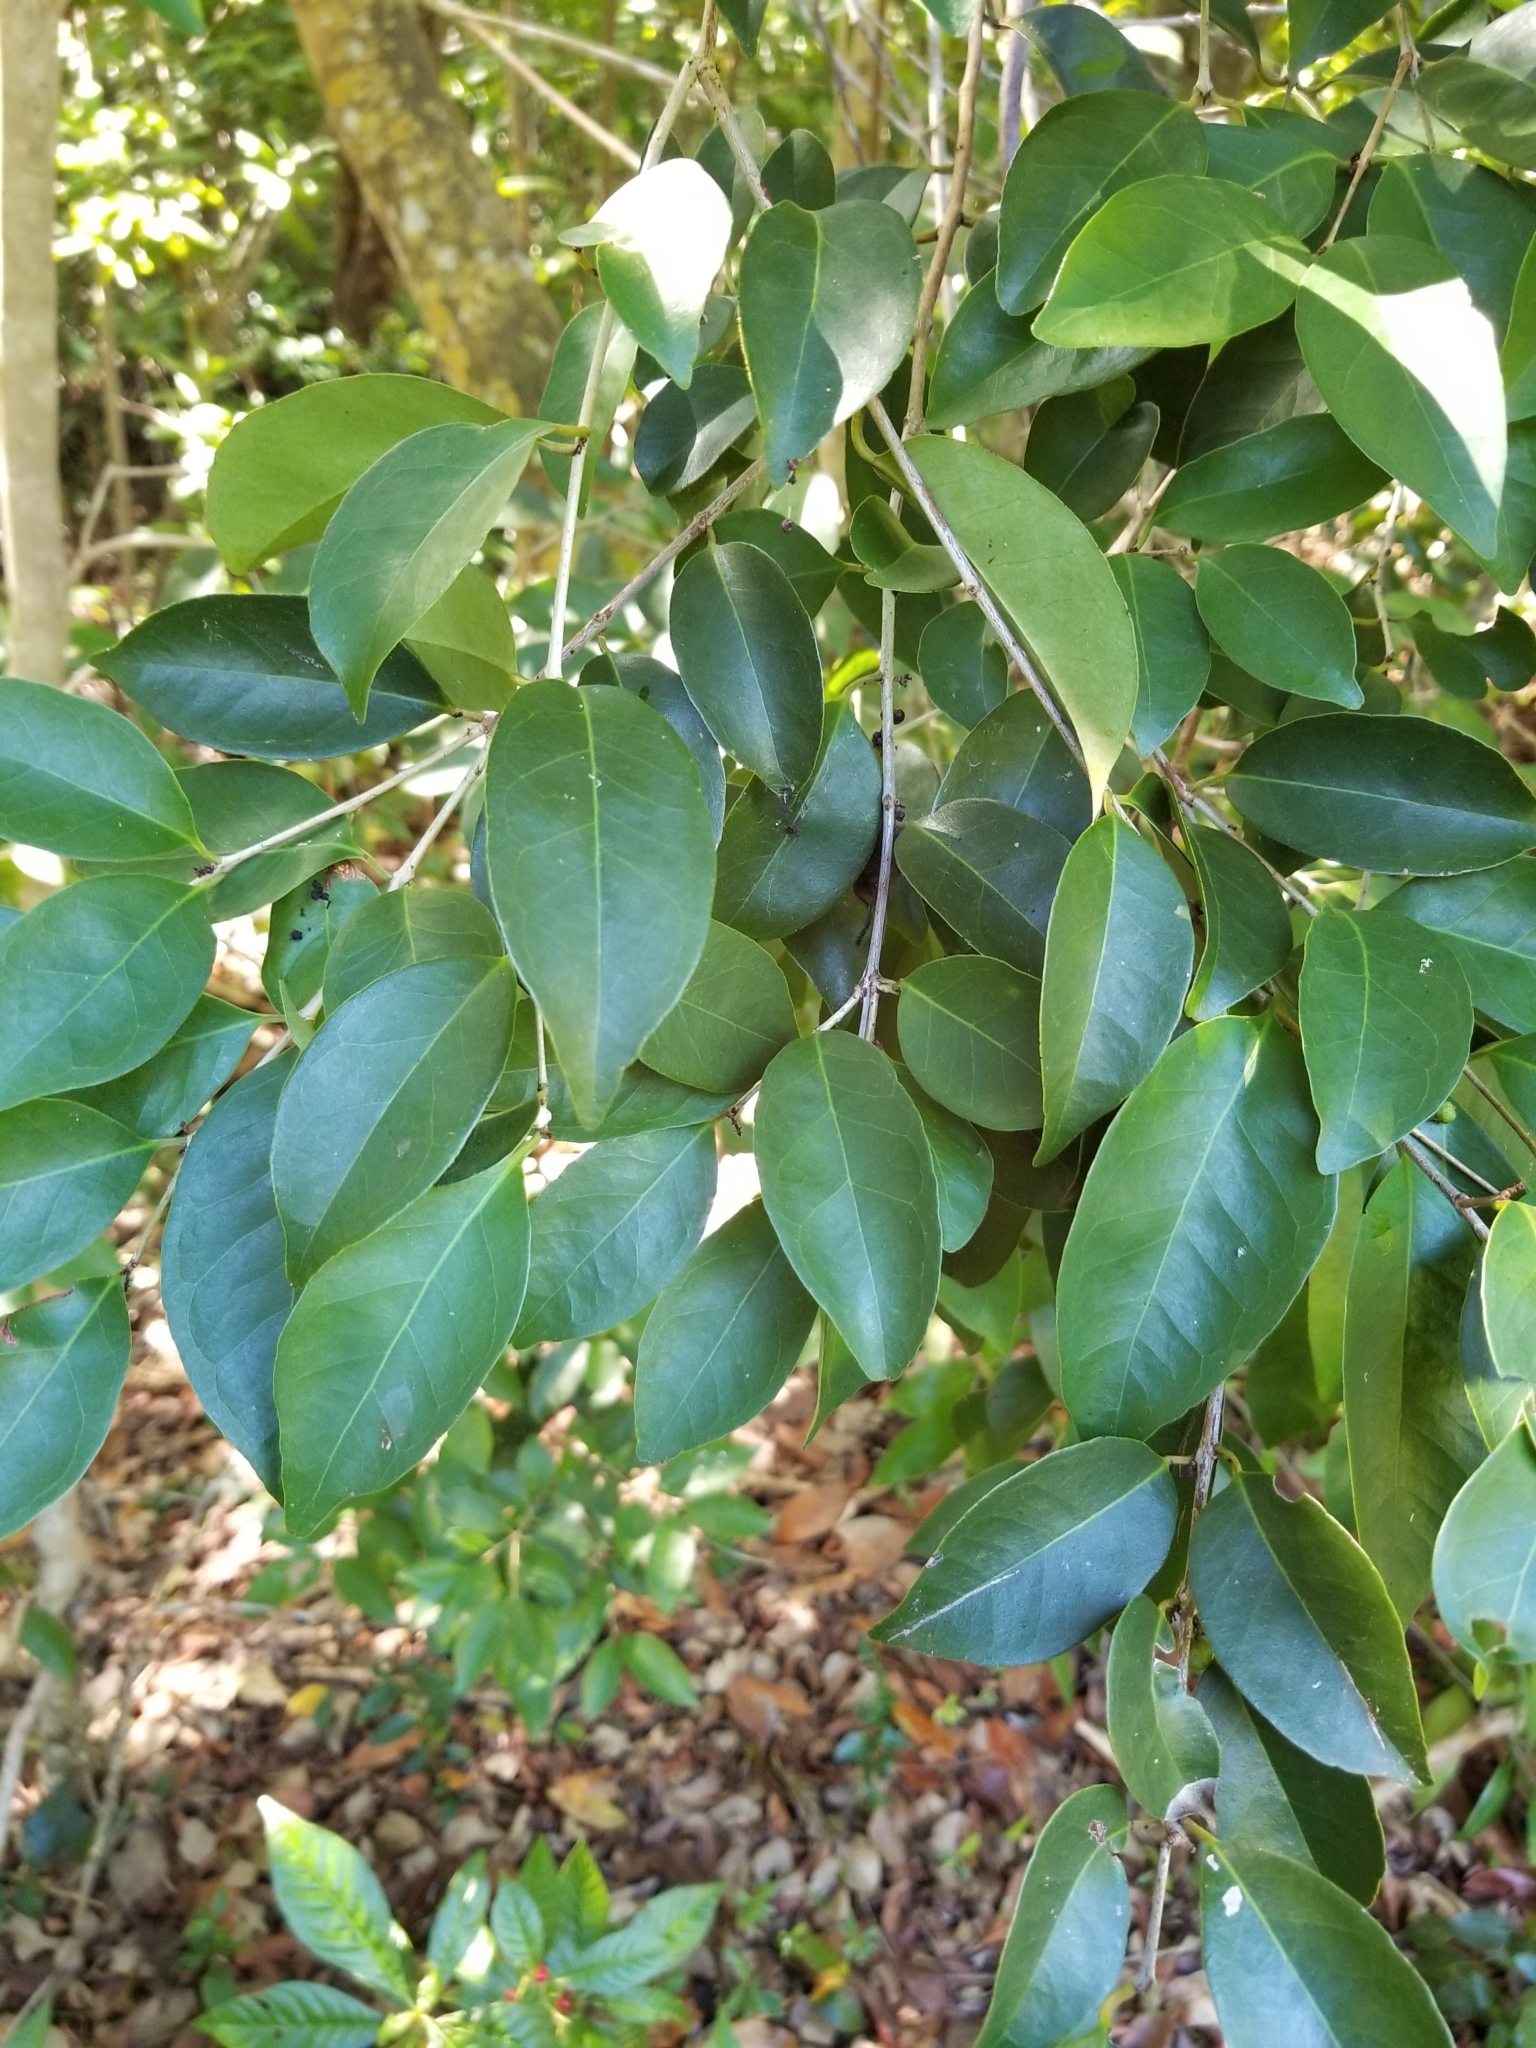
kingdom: Plantae
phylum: Tracheophyta
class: Magnoliopsida
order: Myrtales
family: Myrtaceae
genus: Eugenia
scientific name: Eugenia axillaris
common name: Choaky berry
